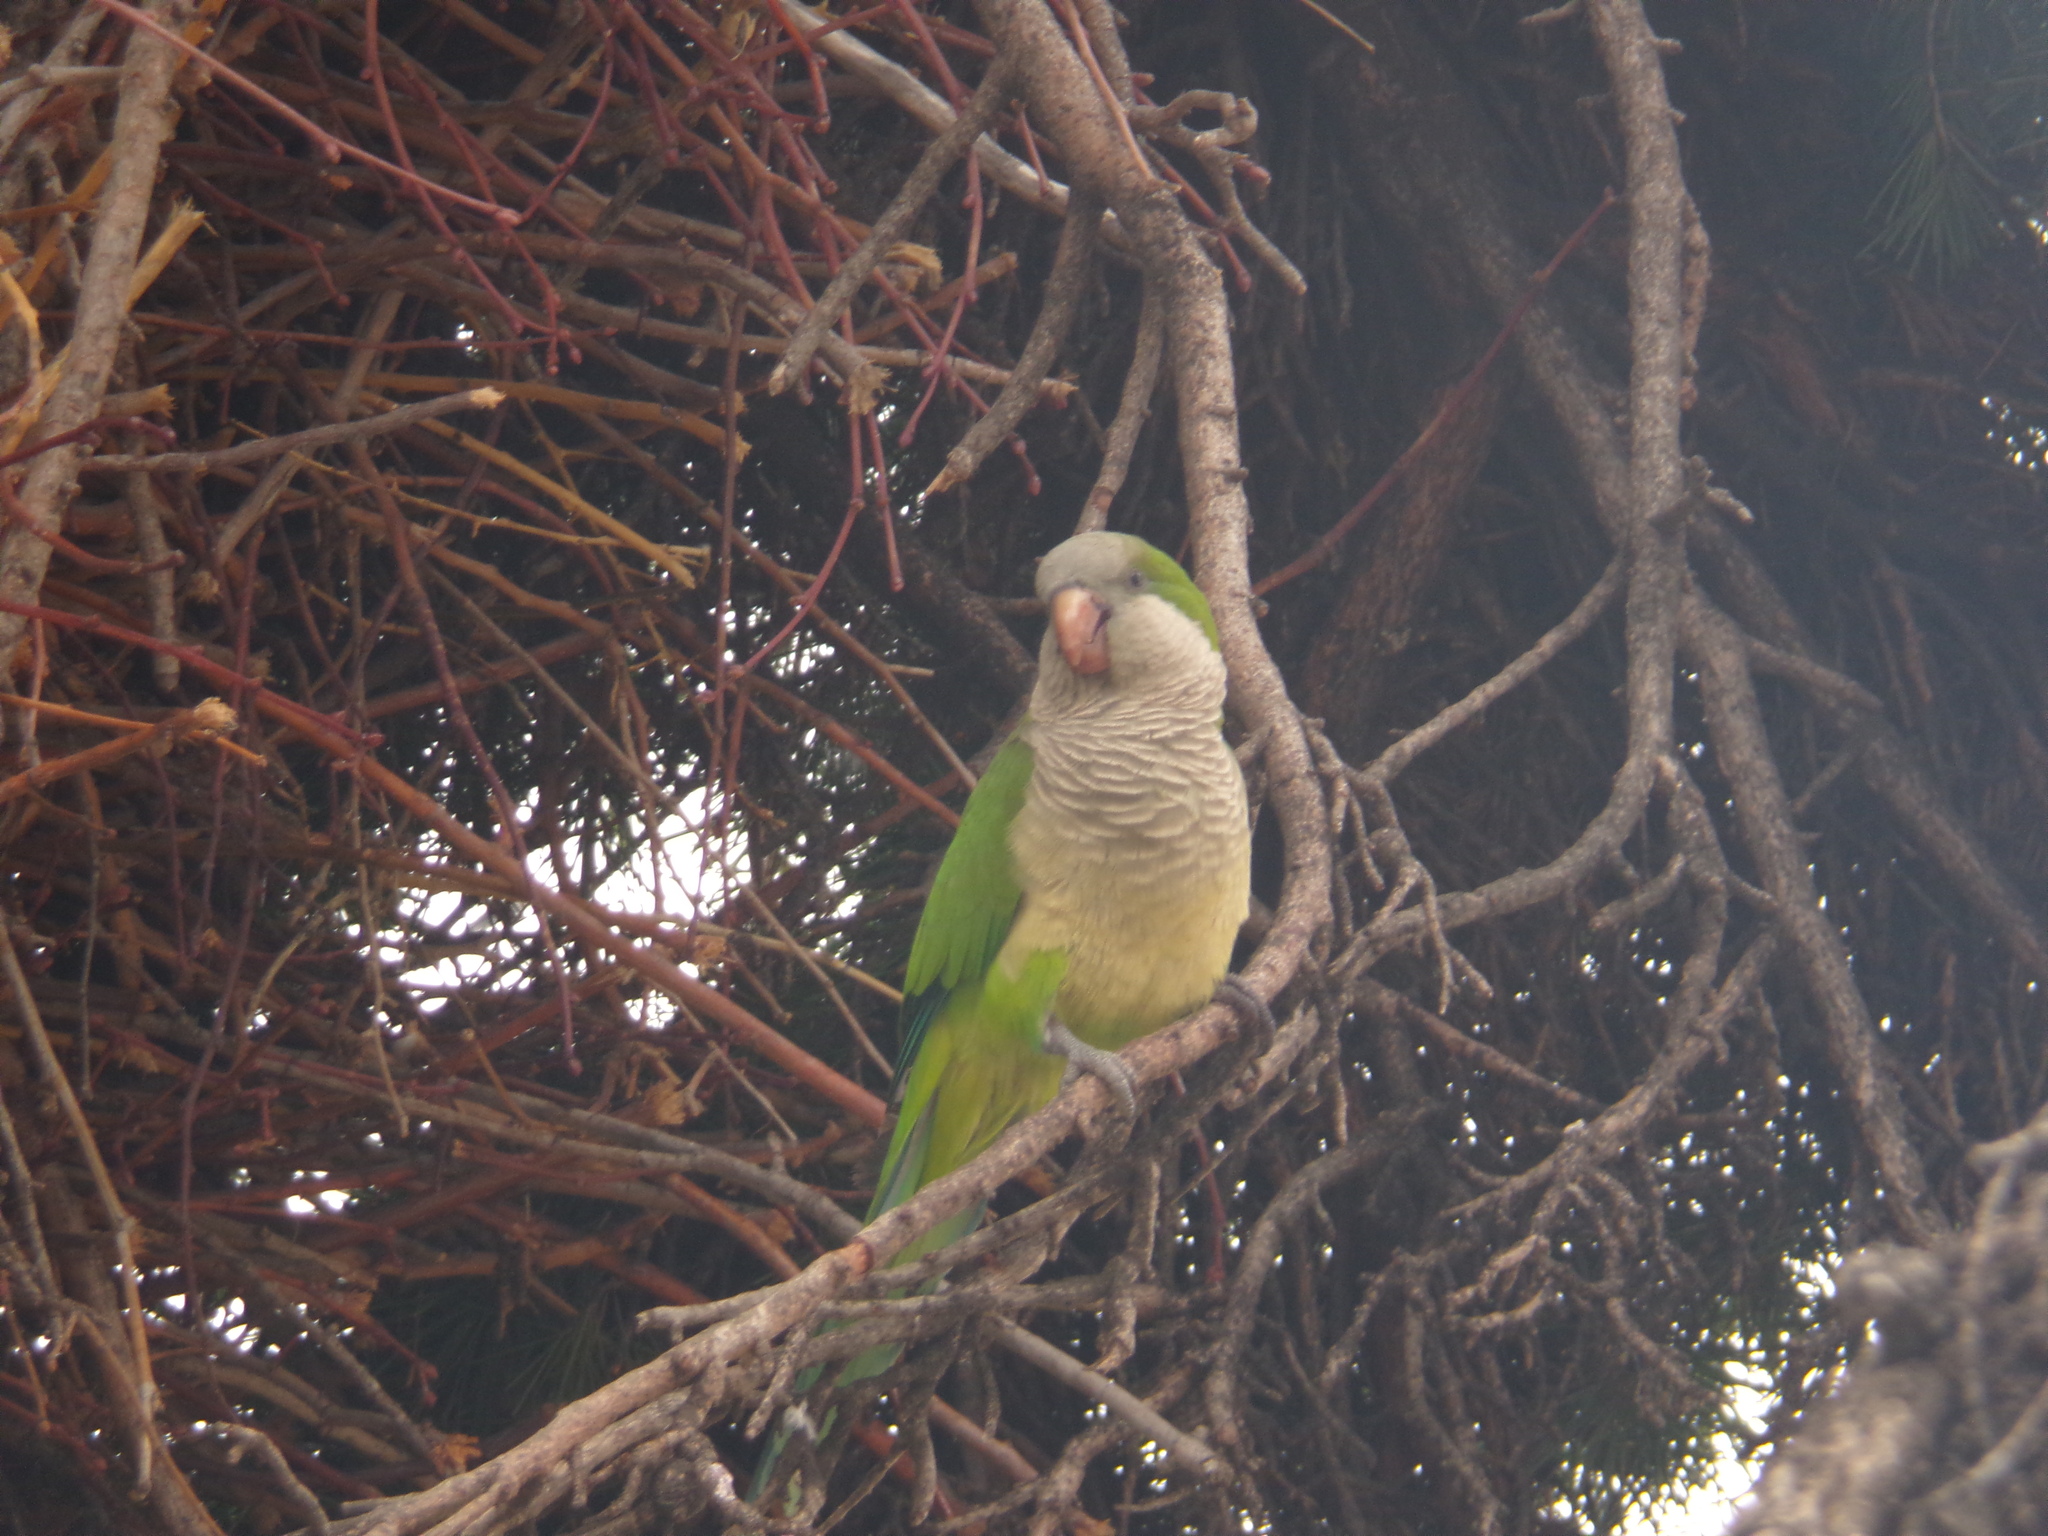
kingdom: Animalia
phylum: Chordata
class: Aves
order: Psittaciformes
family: Psittacidae
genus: Myiopsitta
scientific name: Myiopsitta monachus
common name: Monk parakeet
